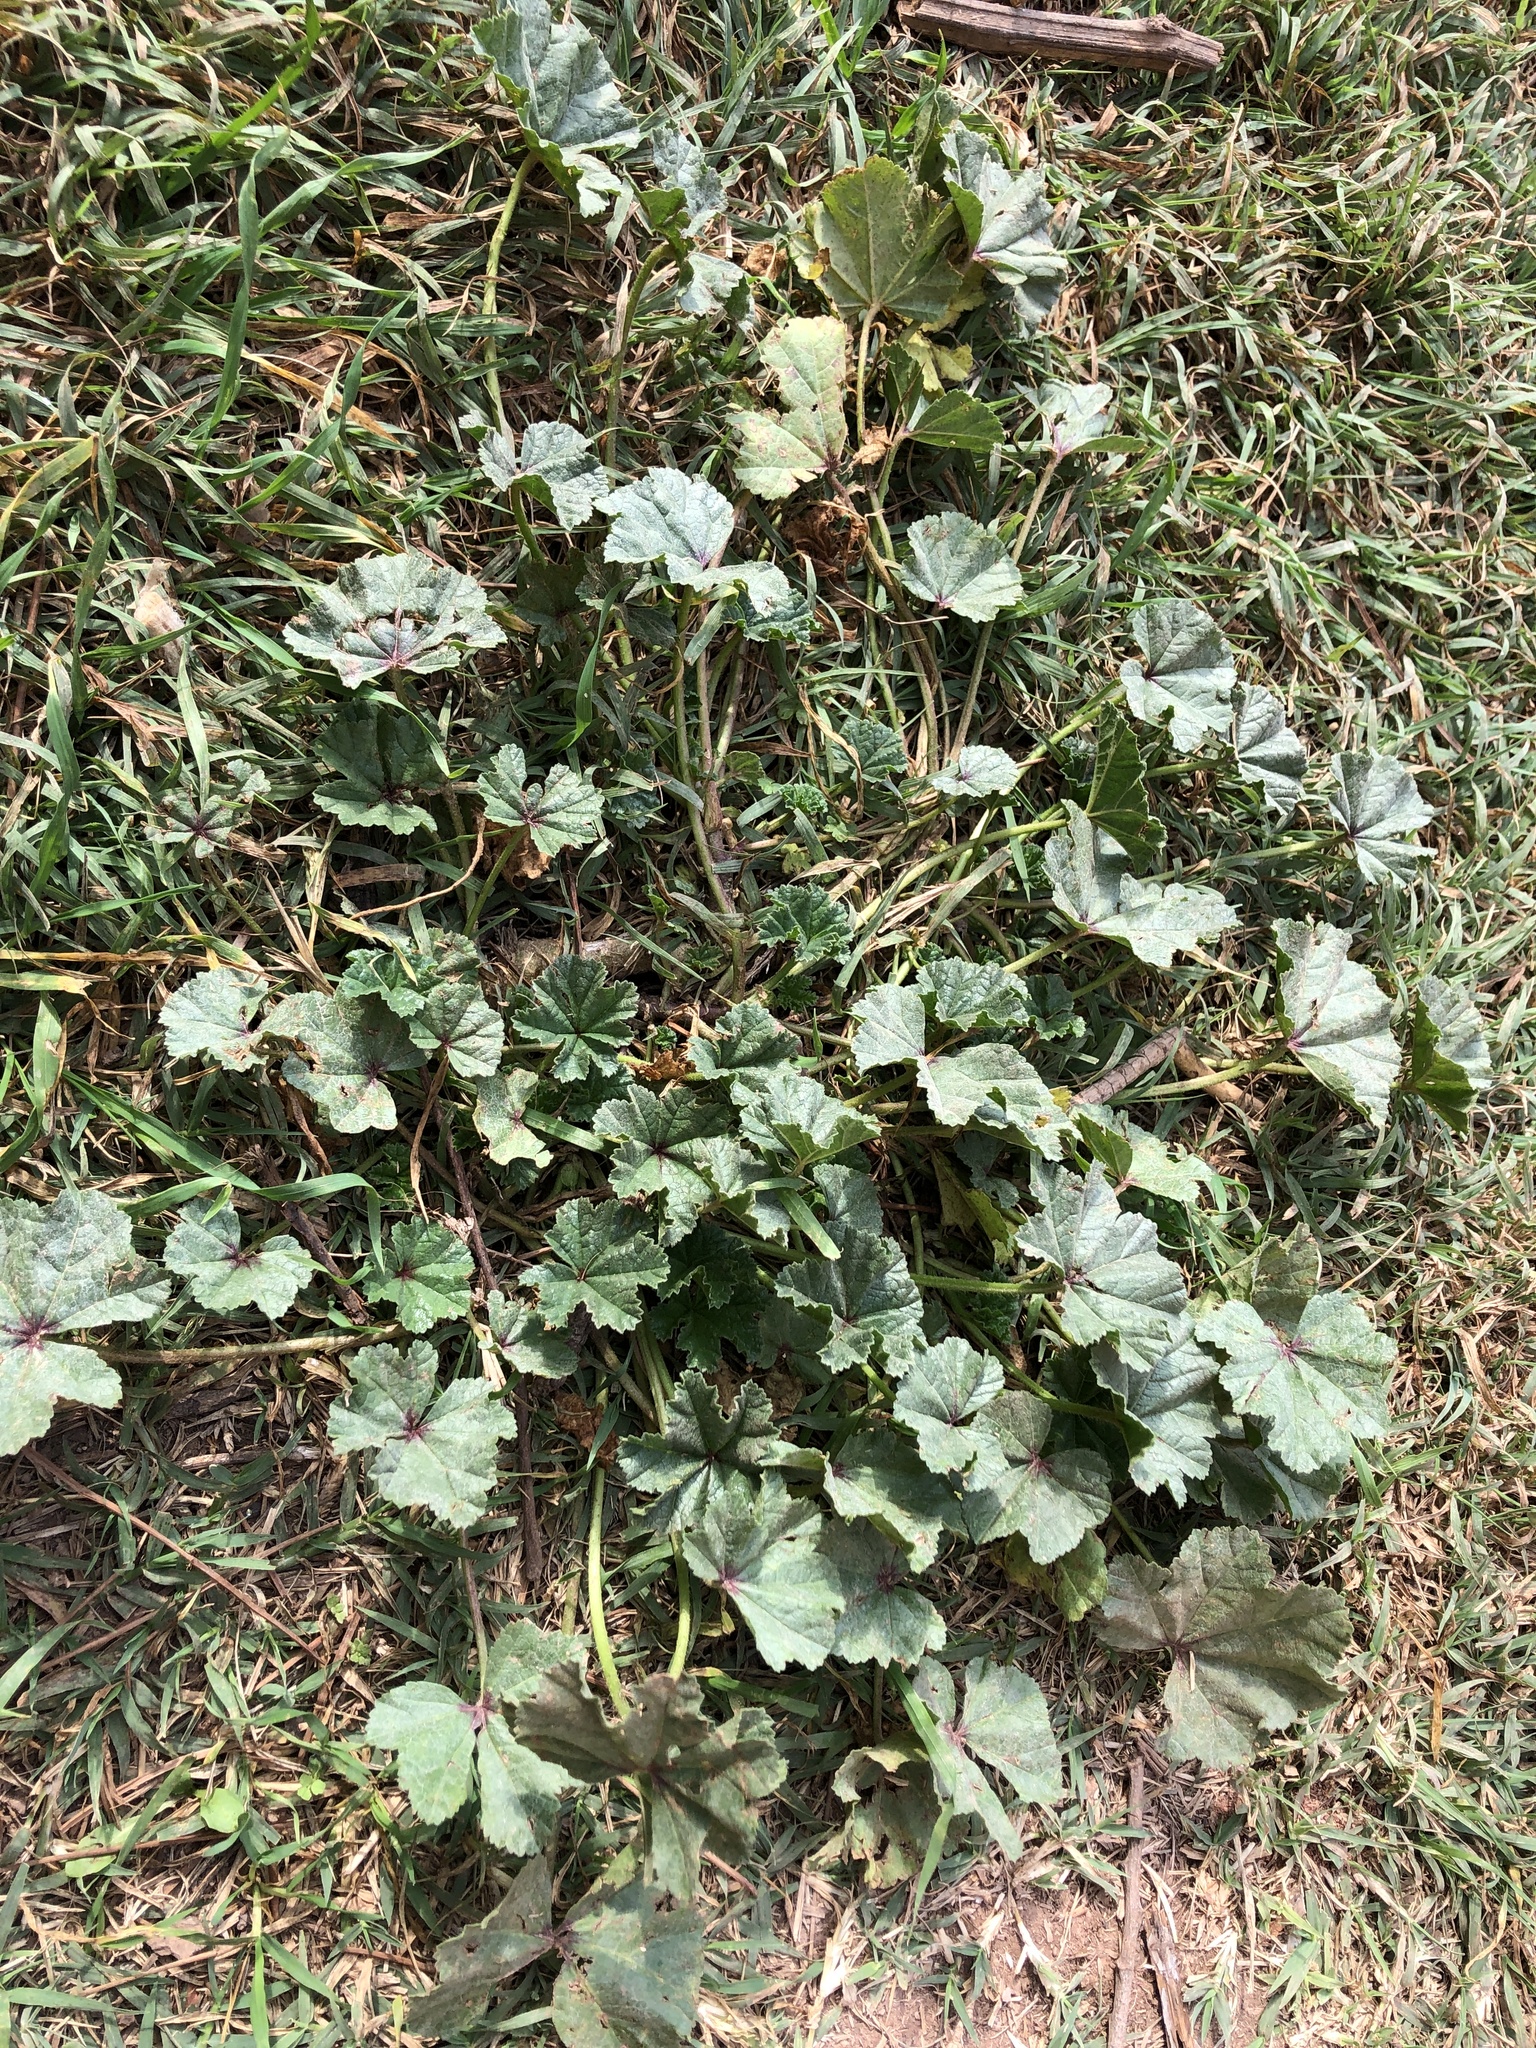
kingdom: Plantae
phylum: Tracheophyta
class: Magnoliopsida
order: Malvales
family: Malvaceae
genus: Malva
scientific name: Malva sylvestris
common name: Common mallow
